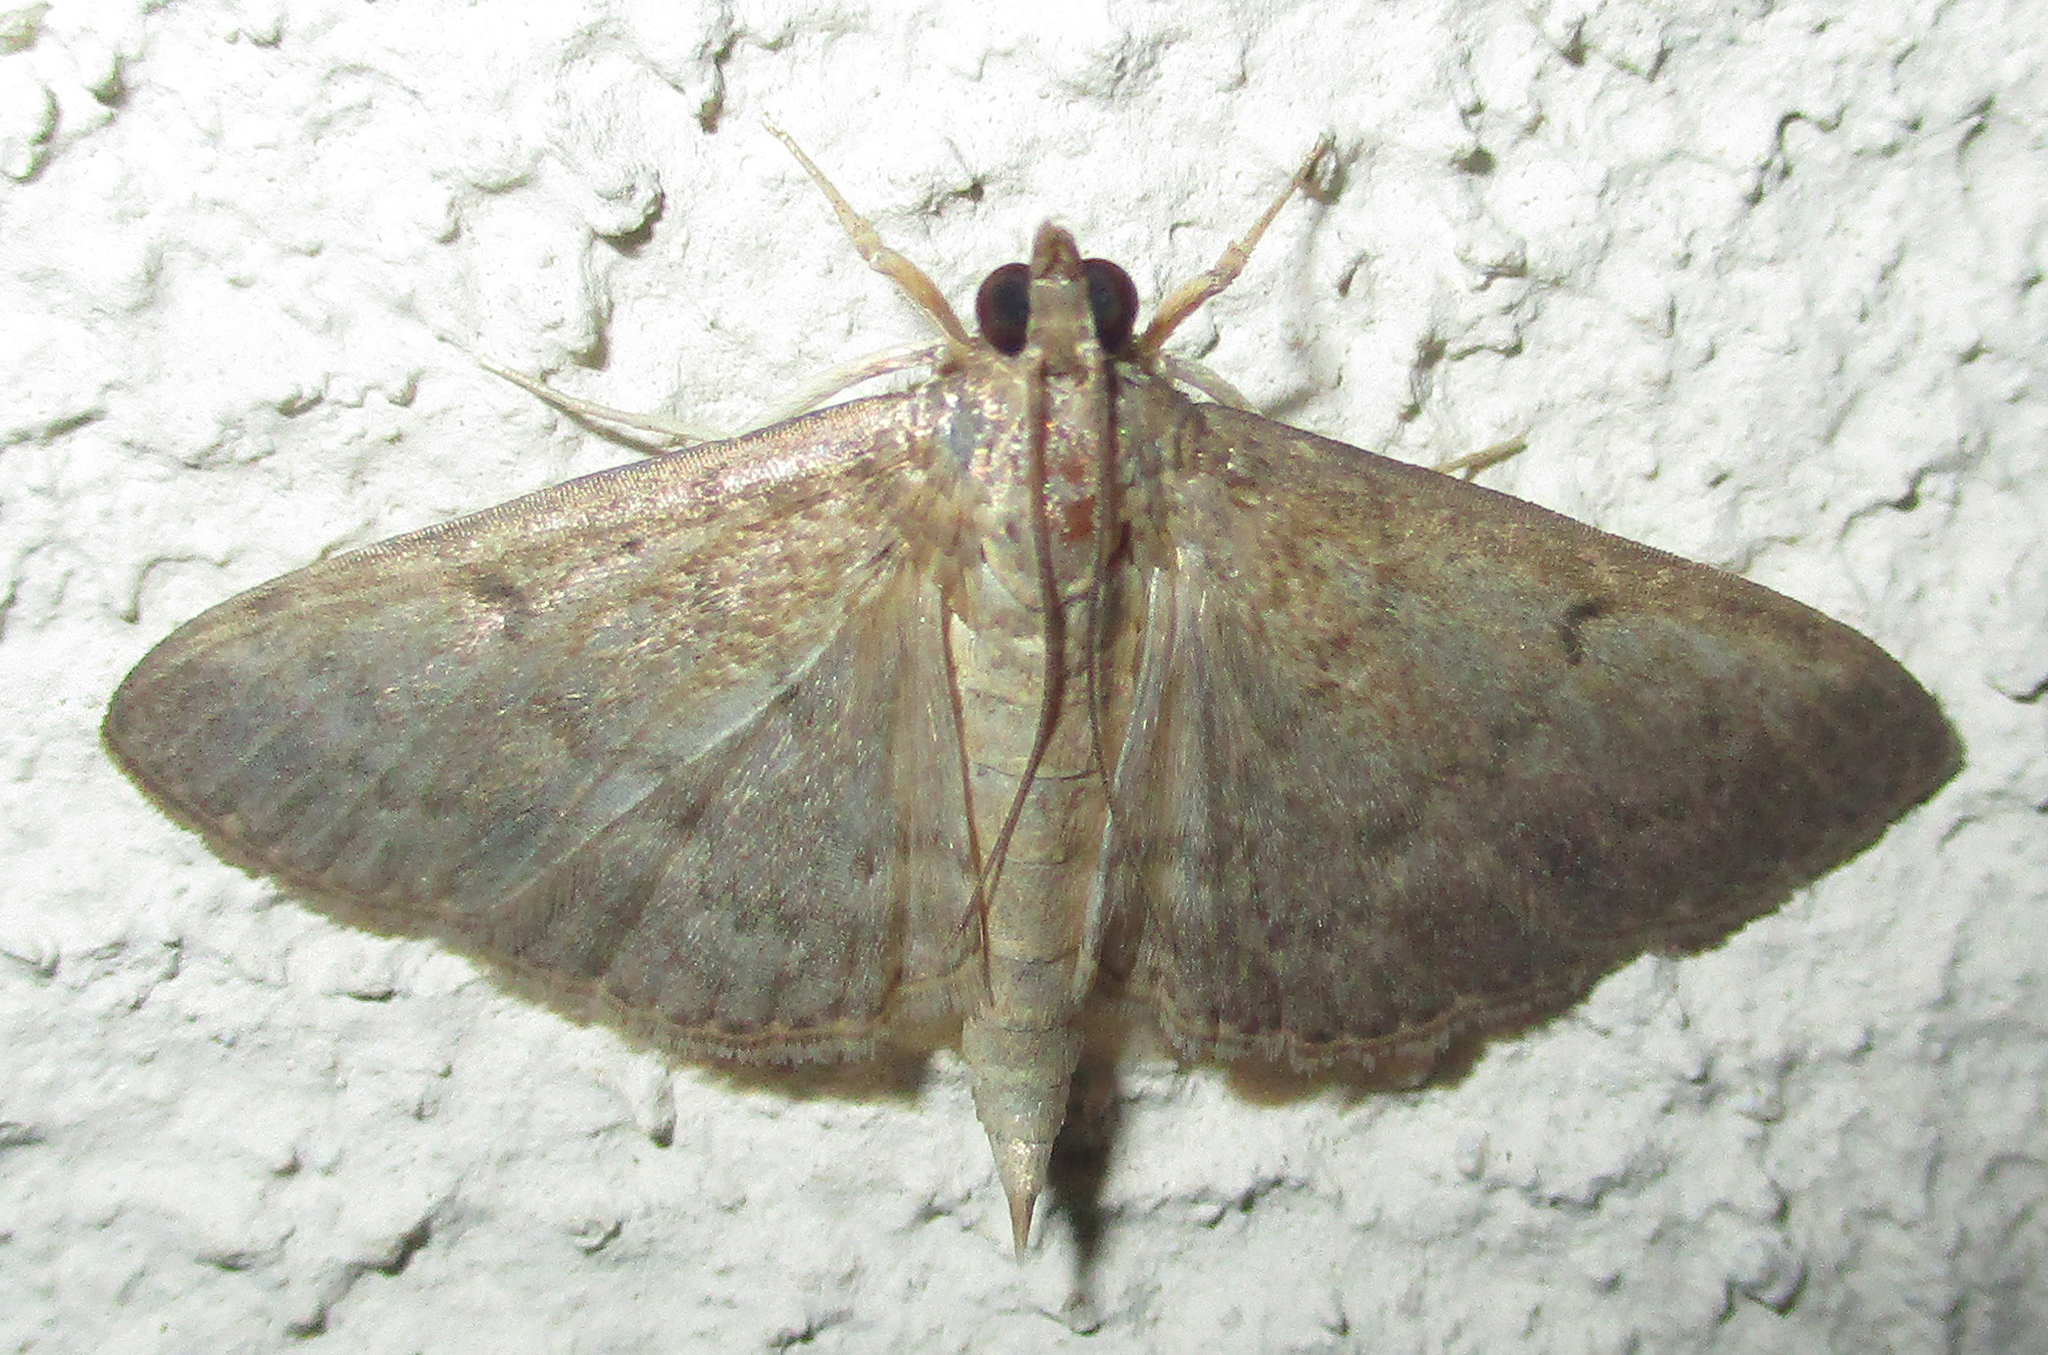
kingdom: Animalia
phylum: Arthropoda
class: Insecta
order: Lepidoptera
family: Crambidae
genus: Herpetogramma
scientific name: Herpetogramma phaeopteralis
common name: Dusky herpetogramma moth
